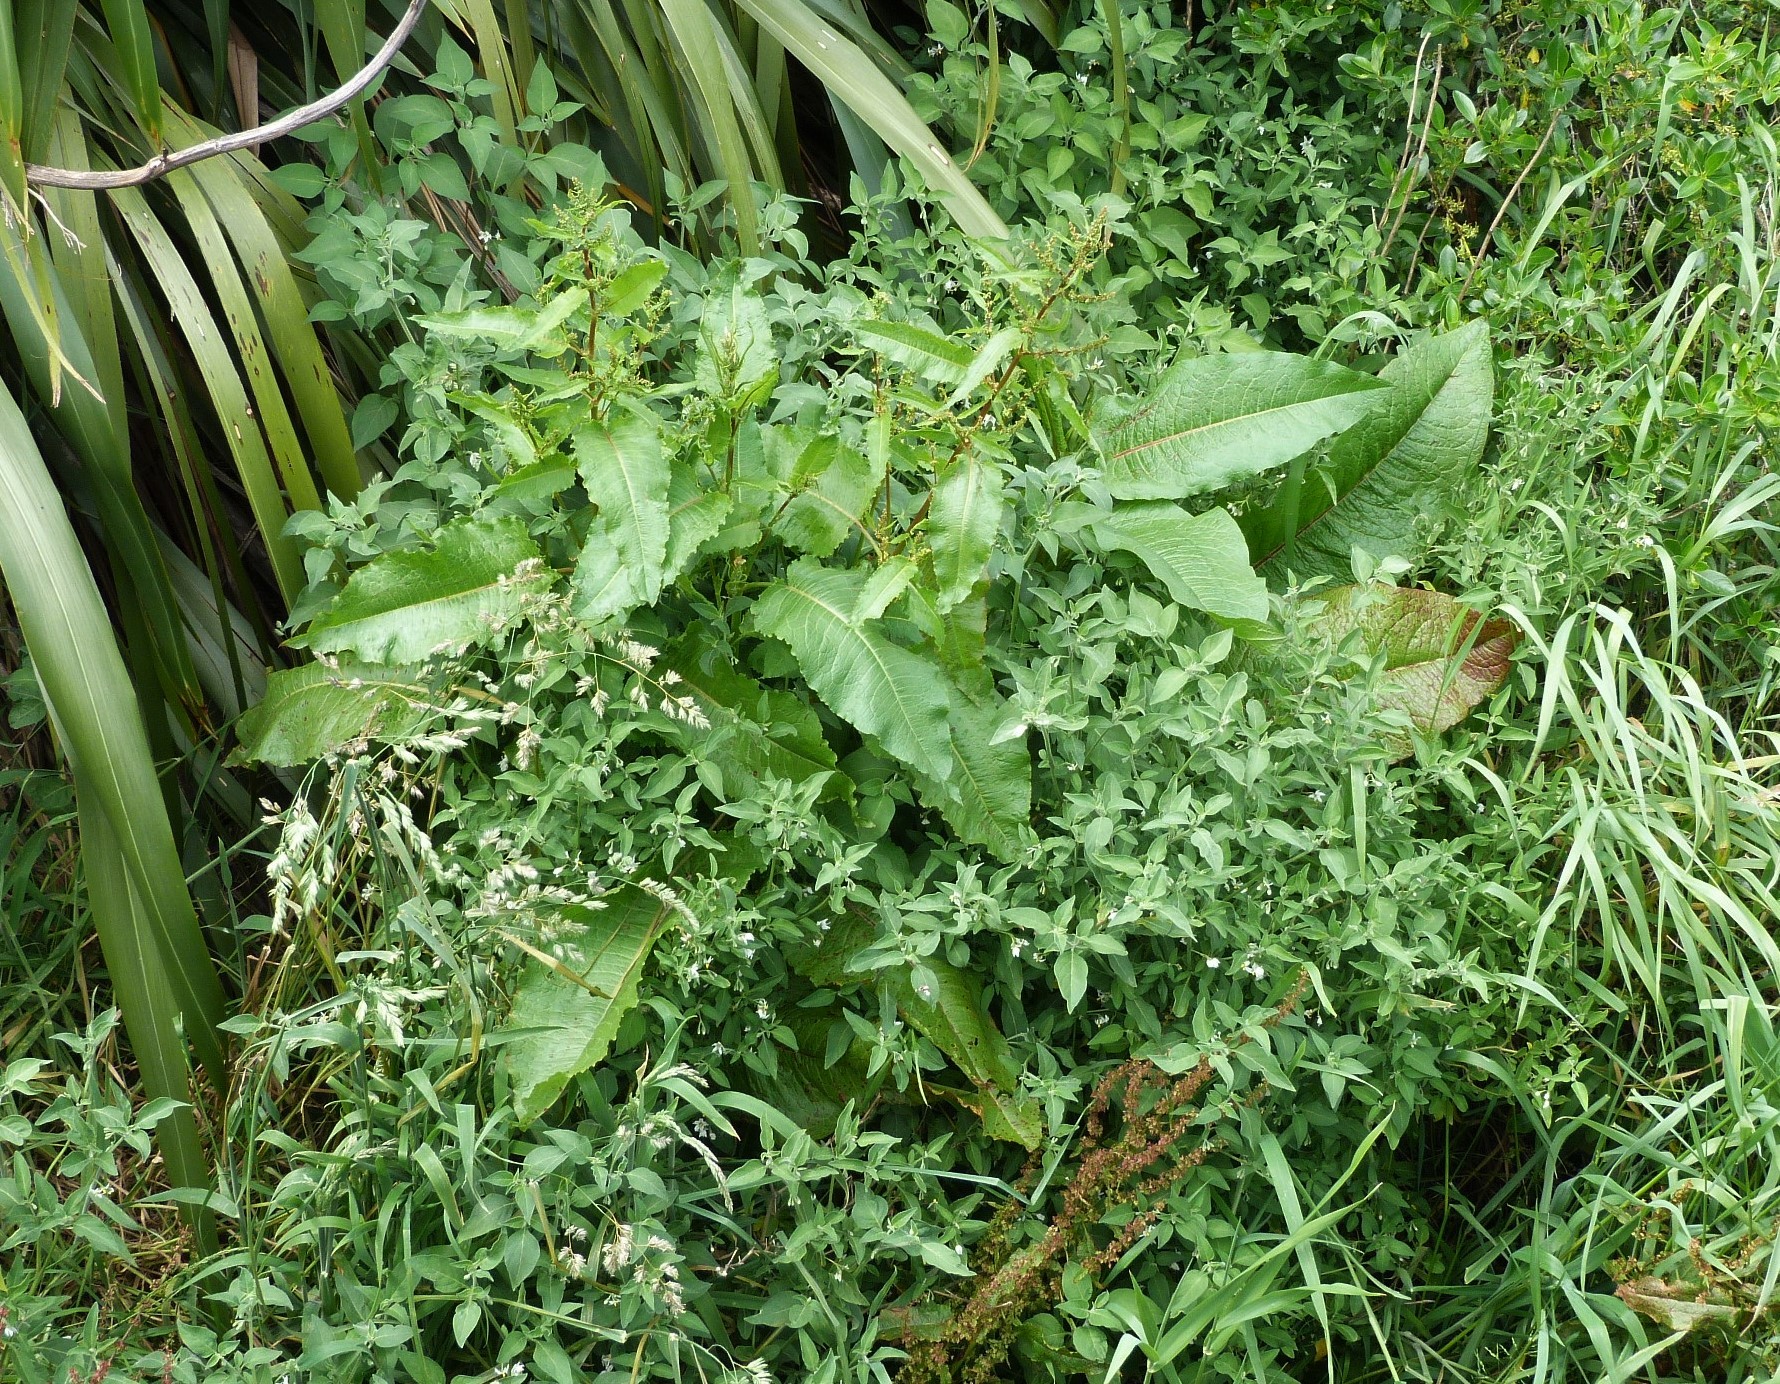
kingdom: Plantae
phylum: Tracheophyta
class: Magnoliopsida
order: Caryophyllales
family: Polygonaceae
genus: Rumex
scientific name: Rumex obtusifolius
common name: Bitter dock
